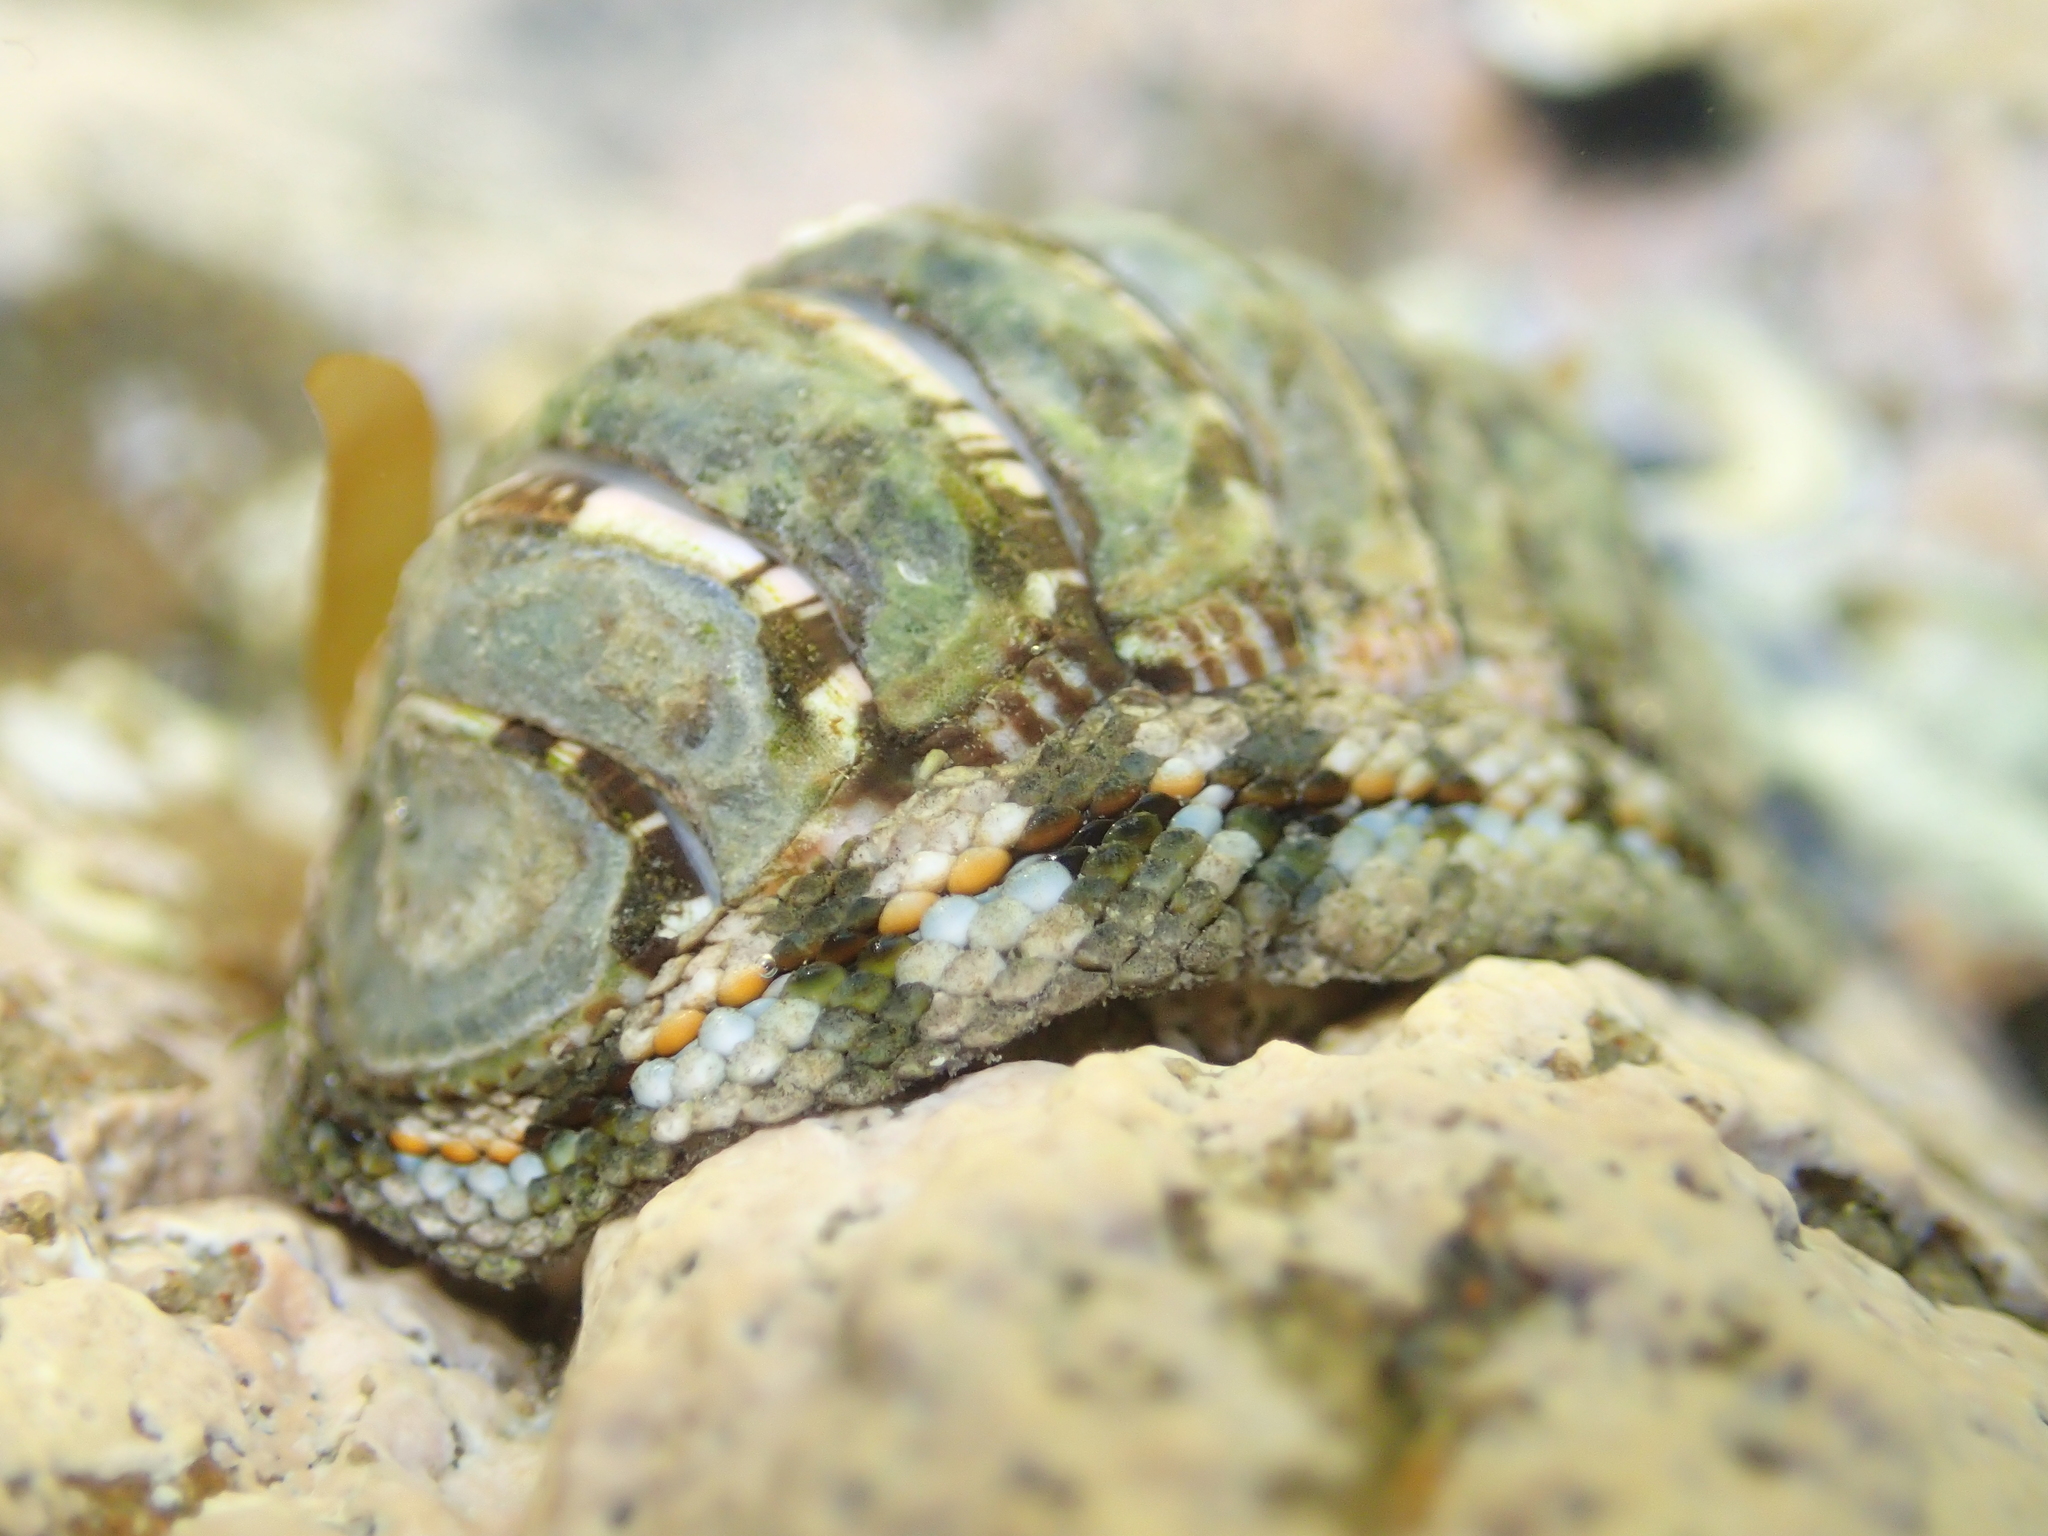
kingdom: Animalia
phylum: Mollusca
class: Polyplacophora
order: Chitonida
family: Chitonidae
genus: Sypharochiton
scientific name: Sypharochiton sinclairi
